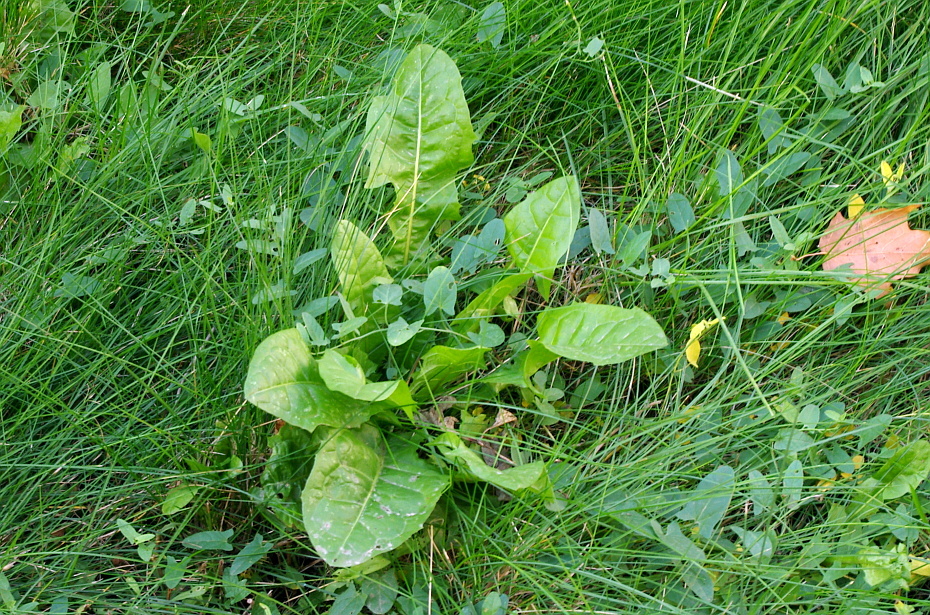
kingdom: Plantae
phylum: Tracheophyta
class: Magnoliopsida
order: Asterales
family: Asteraceae
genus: Taraxacum
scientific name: Taraxacum officinale
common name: Common dandelion
